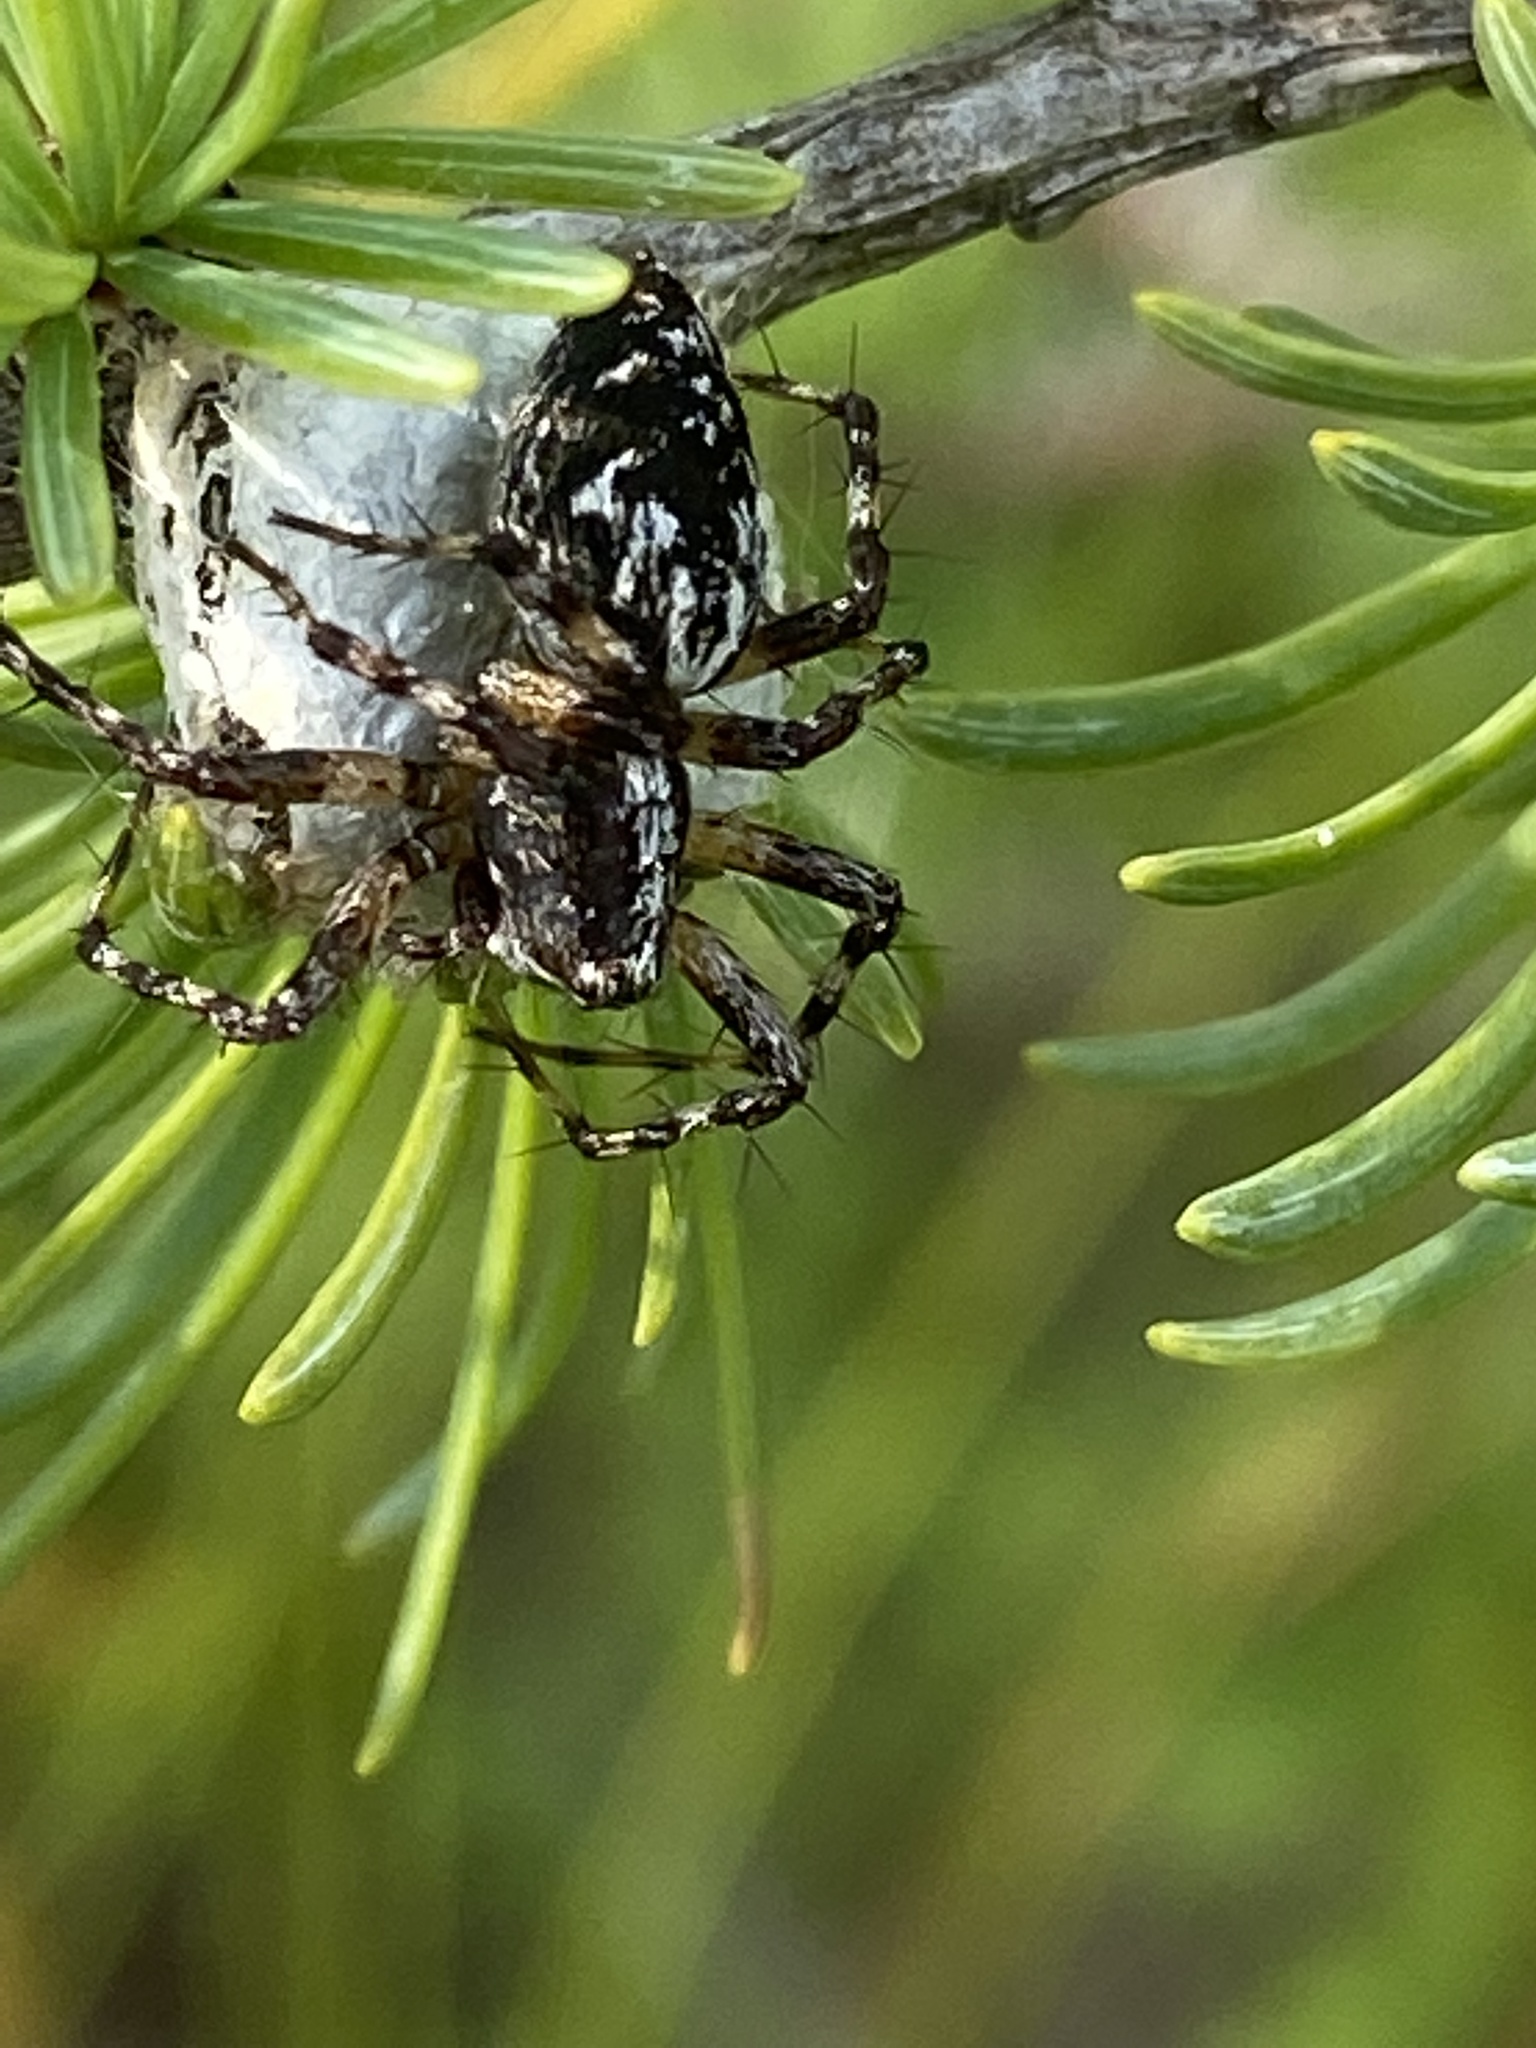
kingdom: Animalia
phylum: Arthropoda
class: Arachnida
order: Araneae
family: Oxyopidae
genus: Oxyopes
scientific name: Oxyopes scalaris
